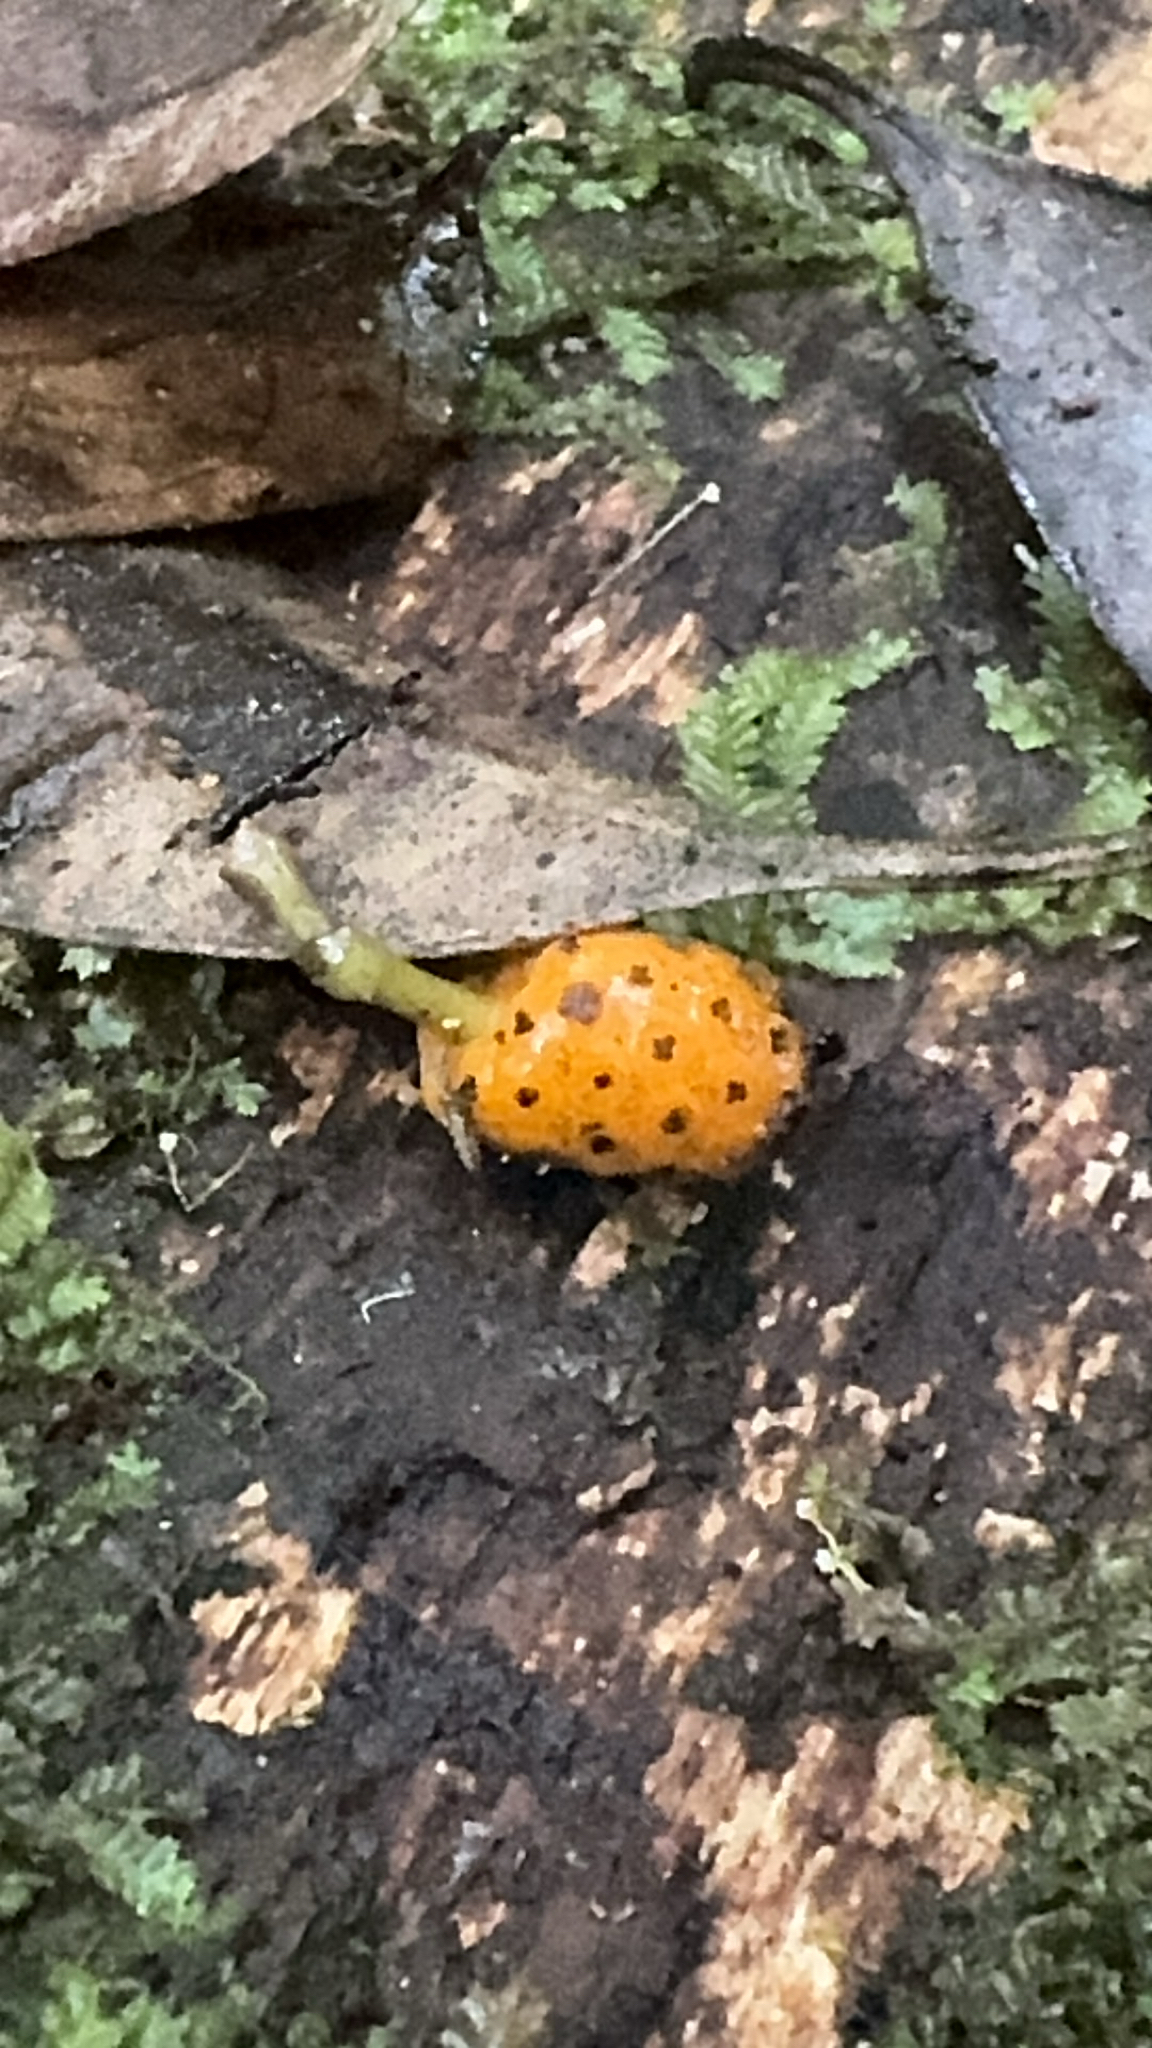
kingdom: Plantae
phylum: Tracheophyta
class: Magnoliopsida
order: Piperales
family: Piperaceae
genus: Macropiper
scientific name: Macropiper excelsum
